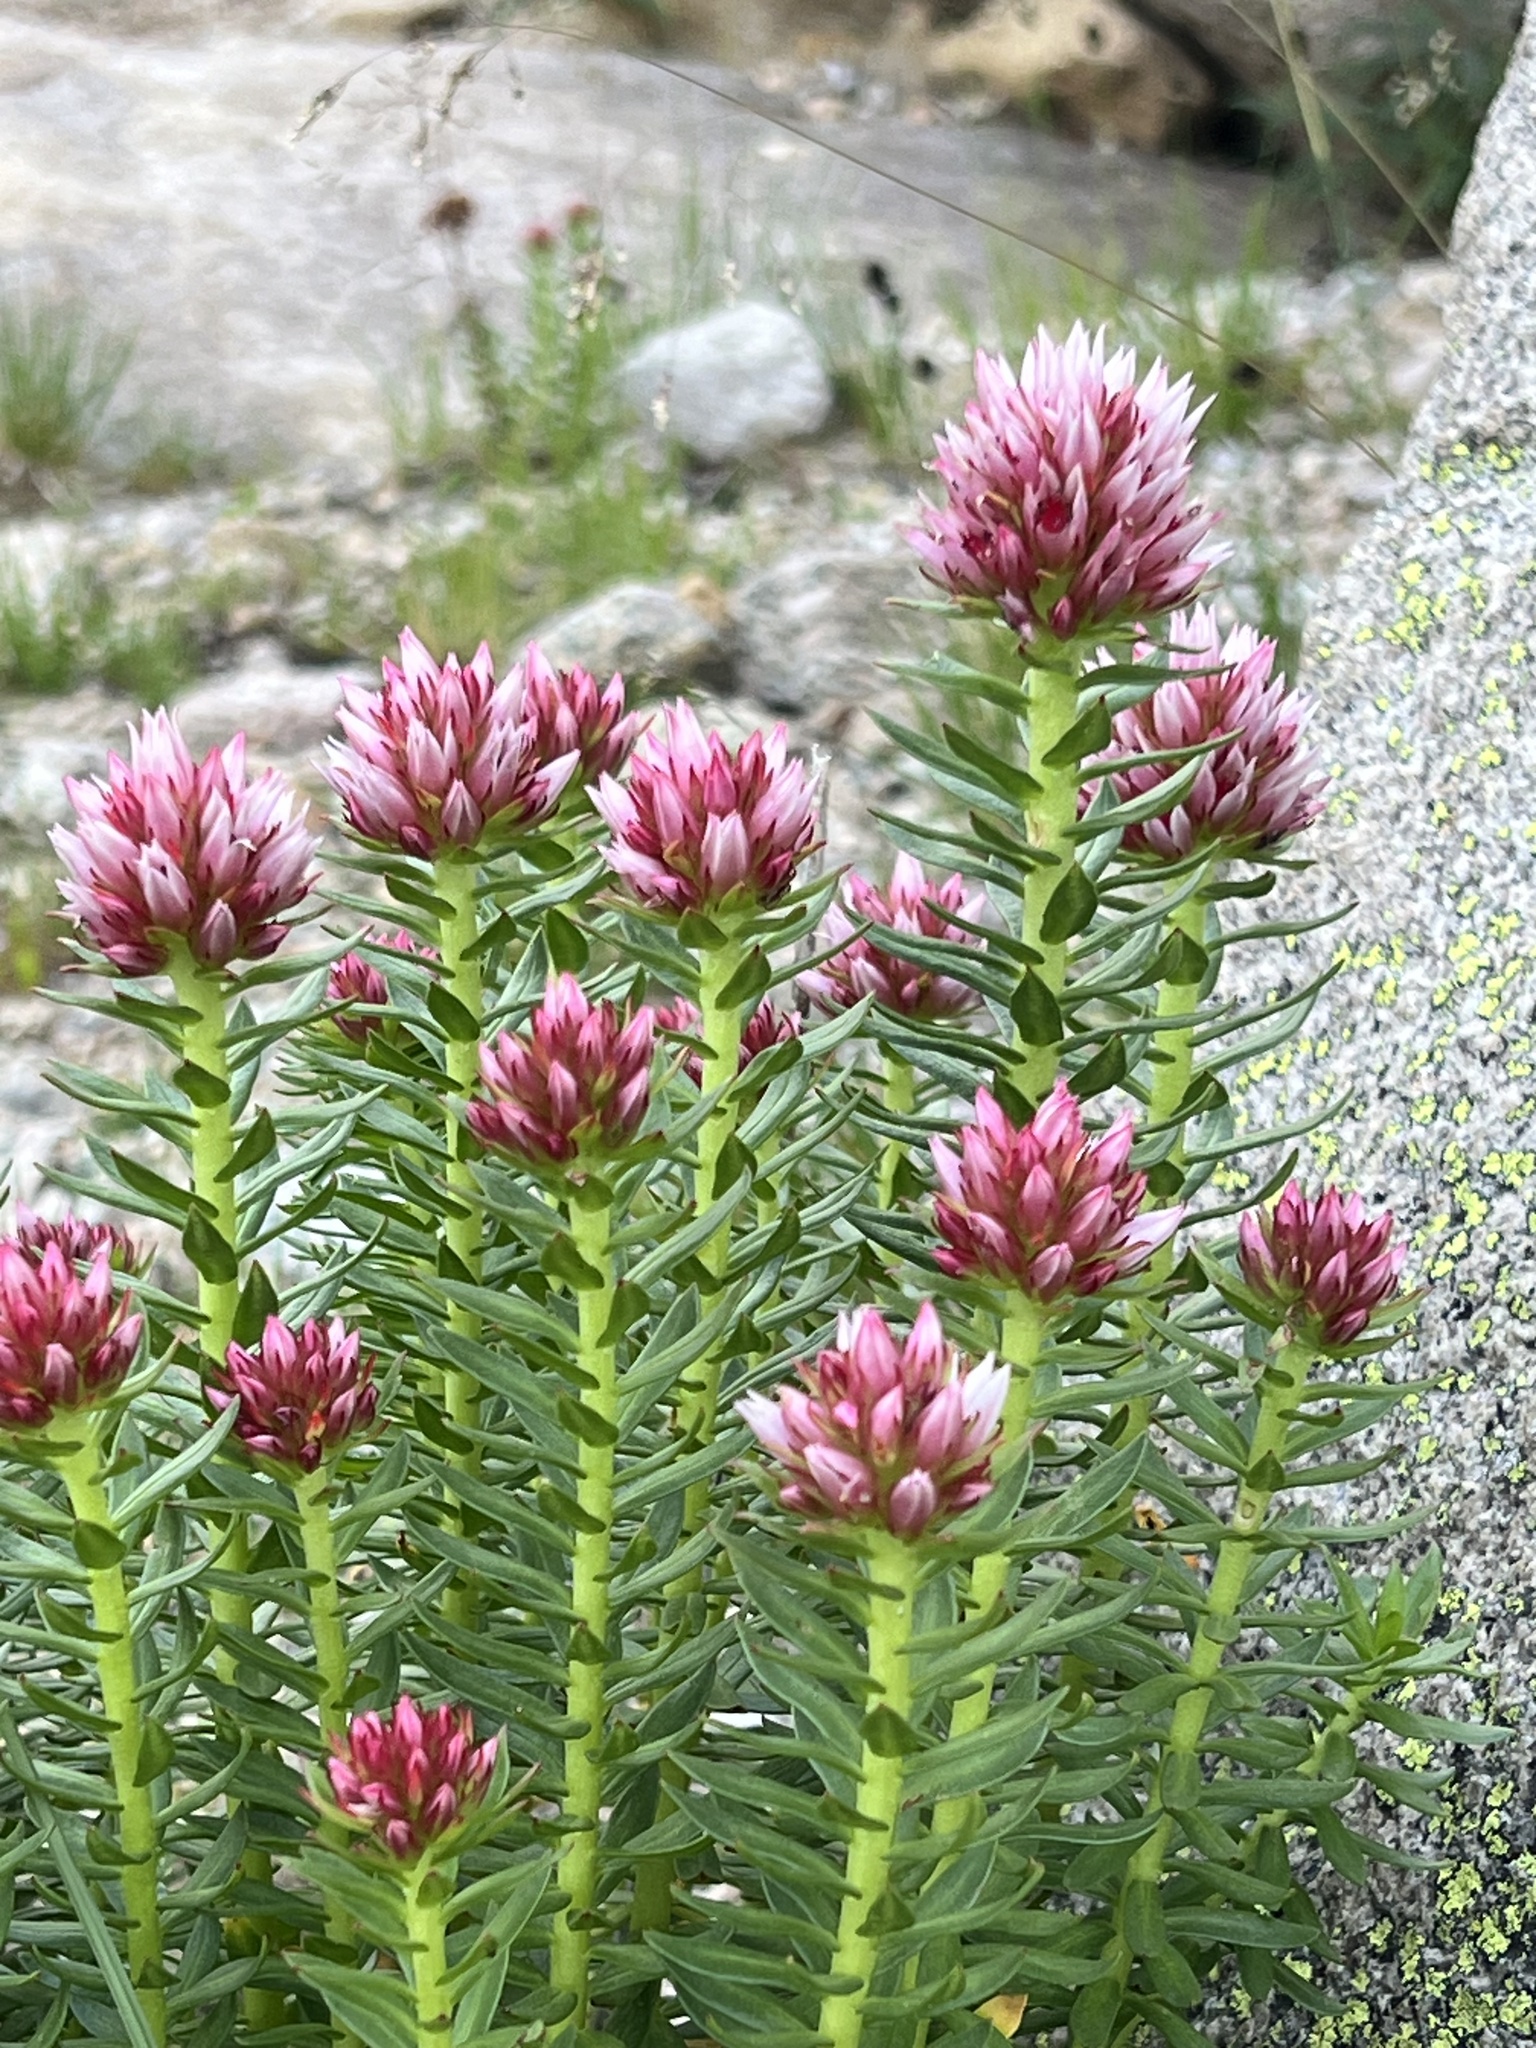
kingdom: Plantae
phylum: Tracheophyta
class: Magnoliopsida
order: Saxifragales
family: Crassulaceae
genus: Rhodiola
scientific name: Rhodiola rhodantha
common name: Red orpine
